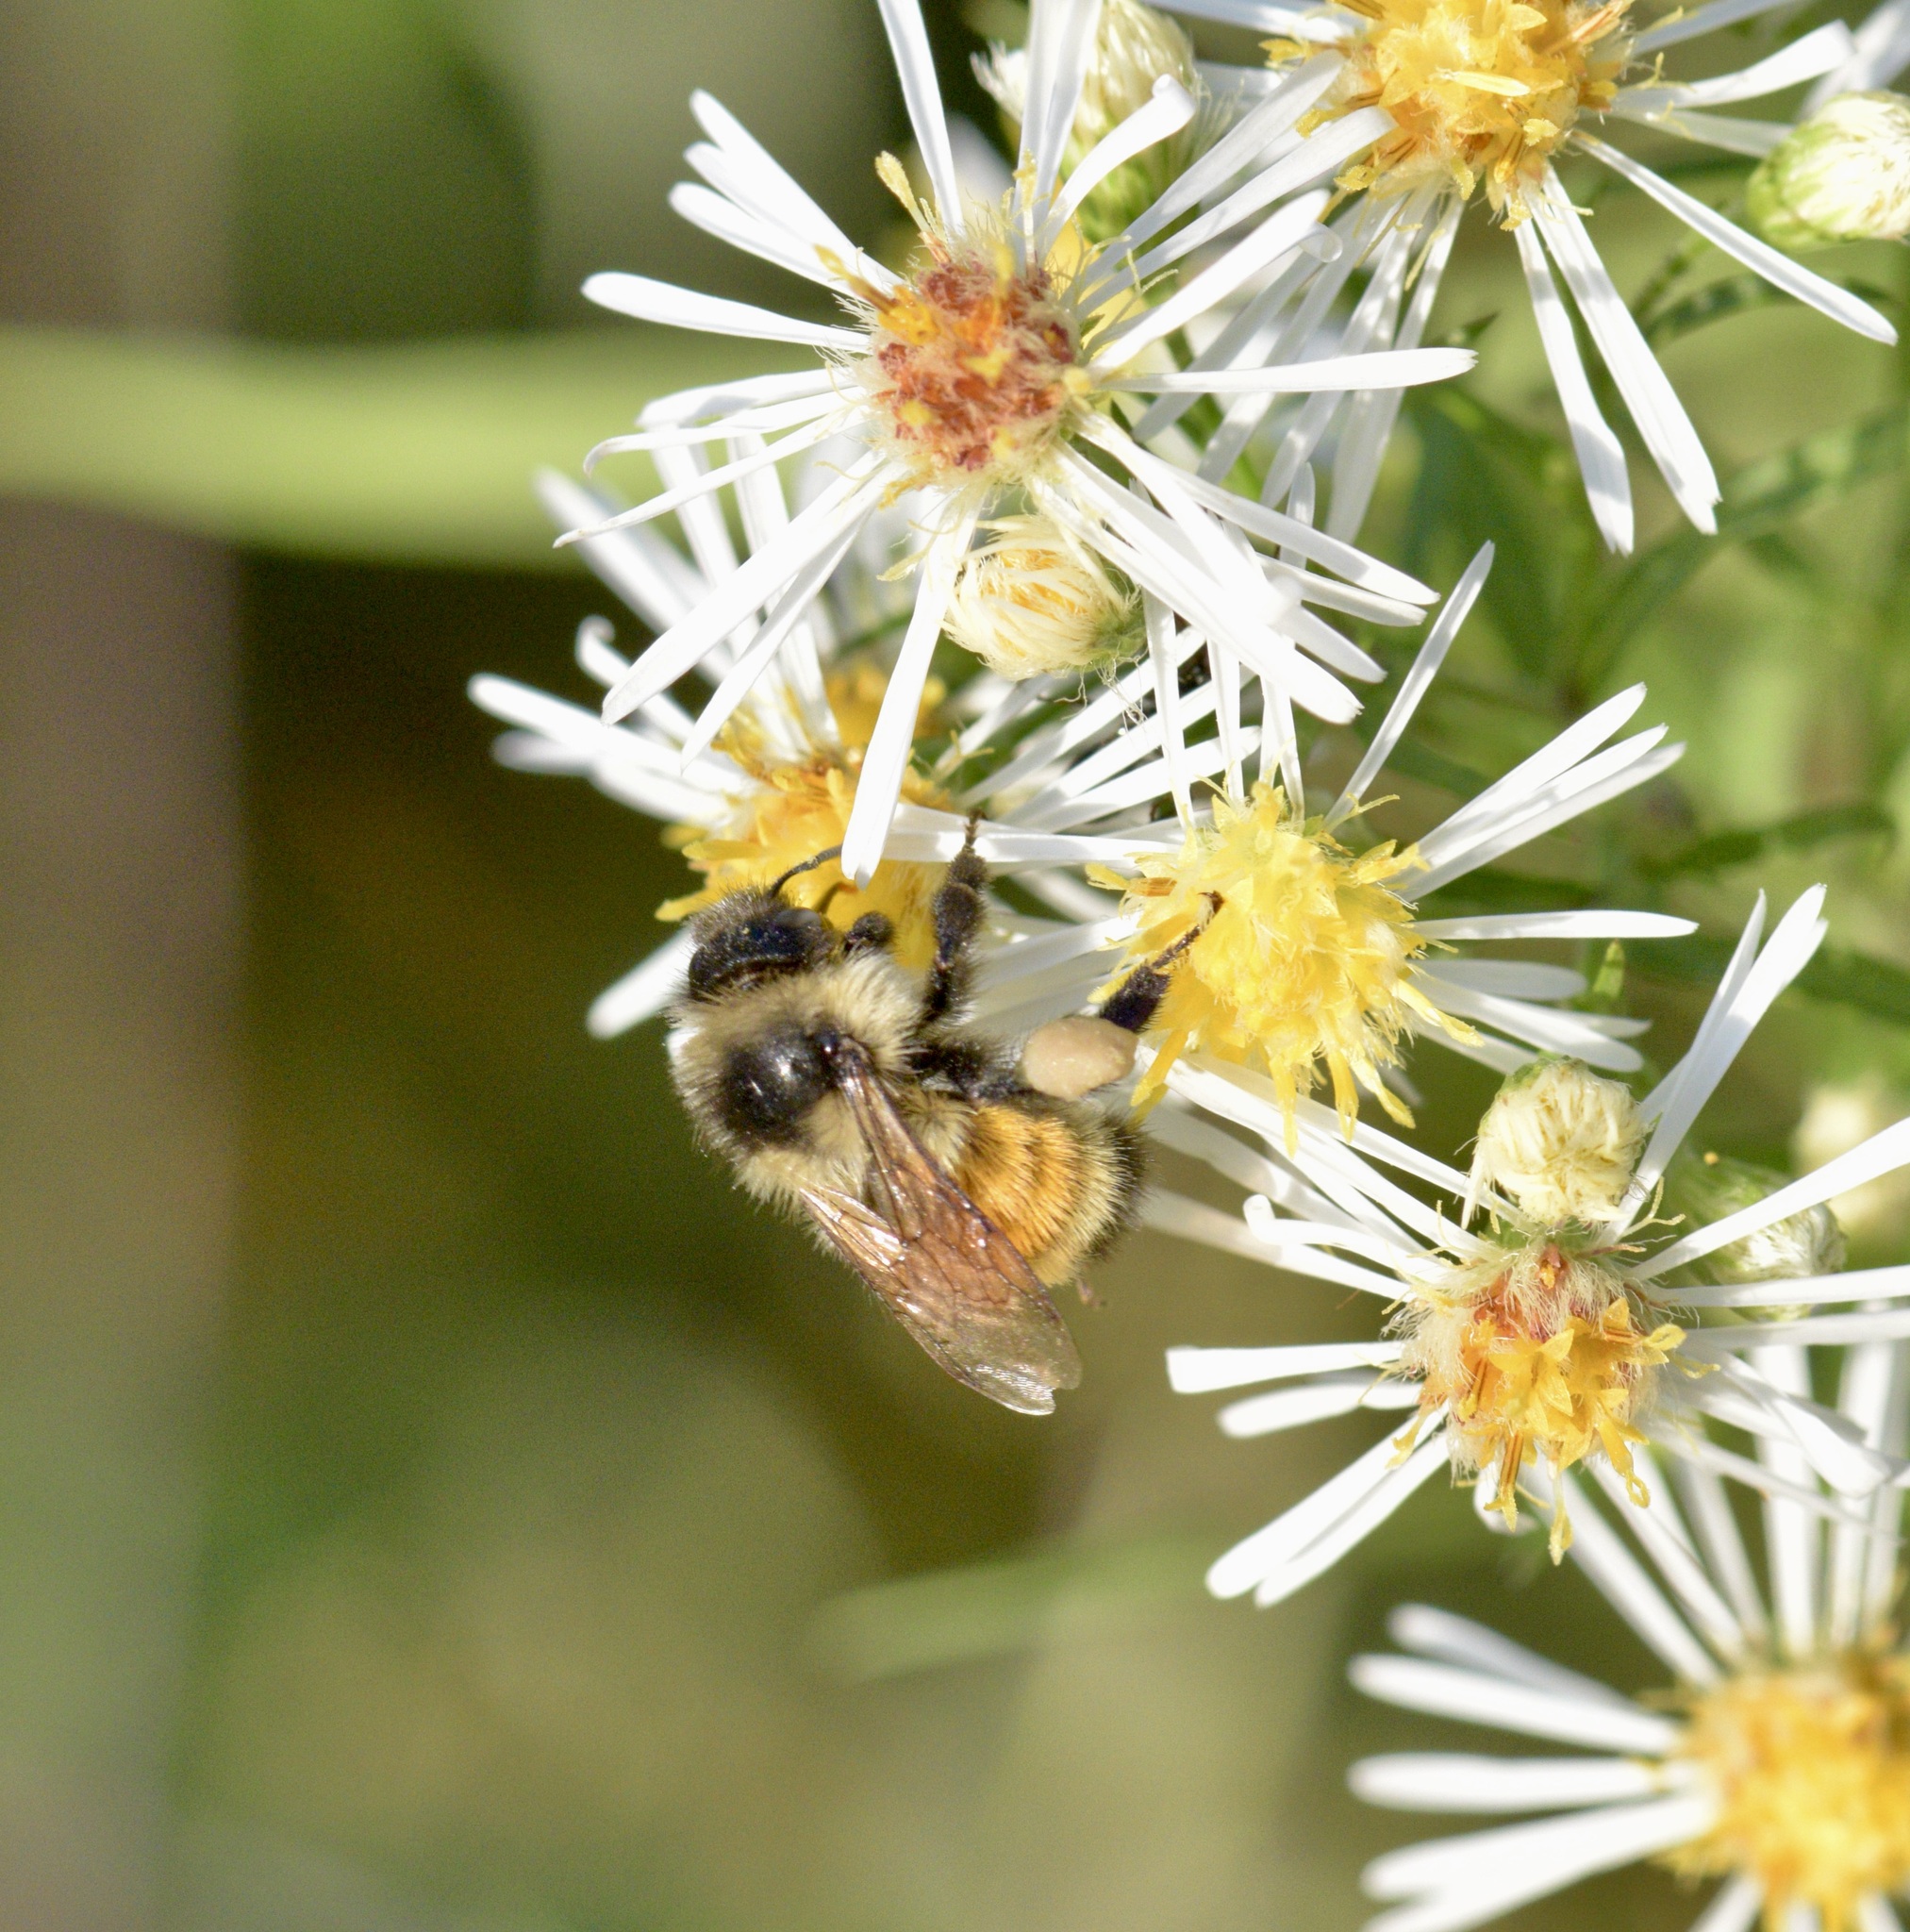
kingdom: Animalia
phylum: Arthropoda
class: Insecta
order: Hymenoptera
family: Apidae
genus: Bombus
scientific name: Bombus ternarius
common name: Tri-colored bumble bee
